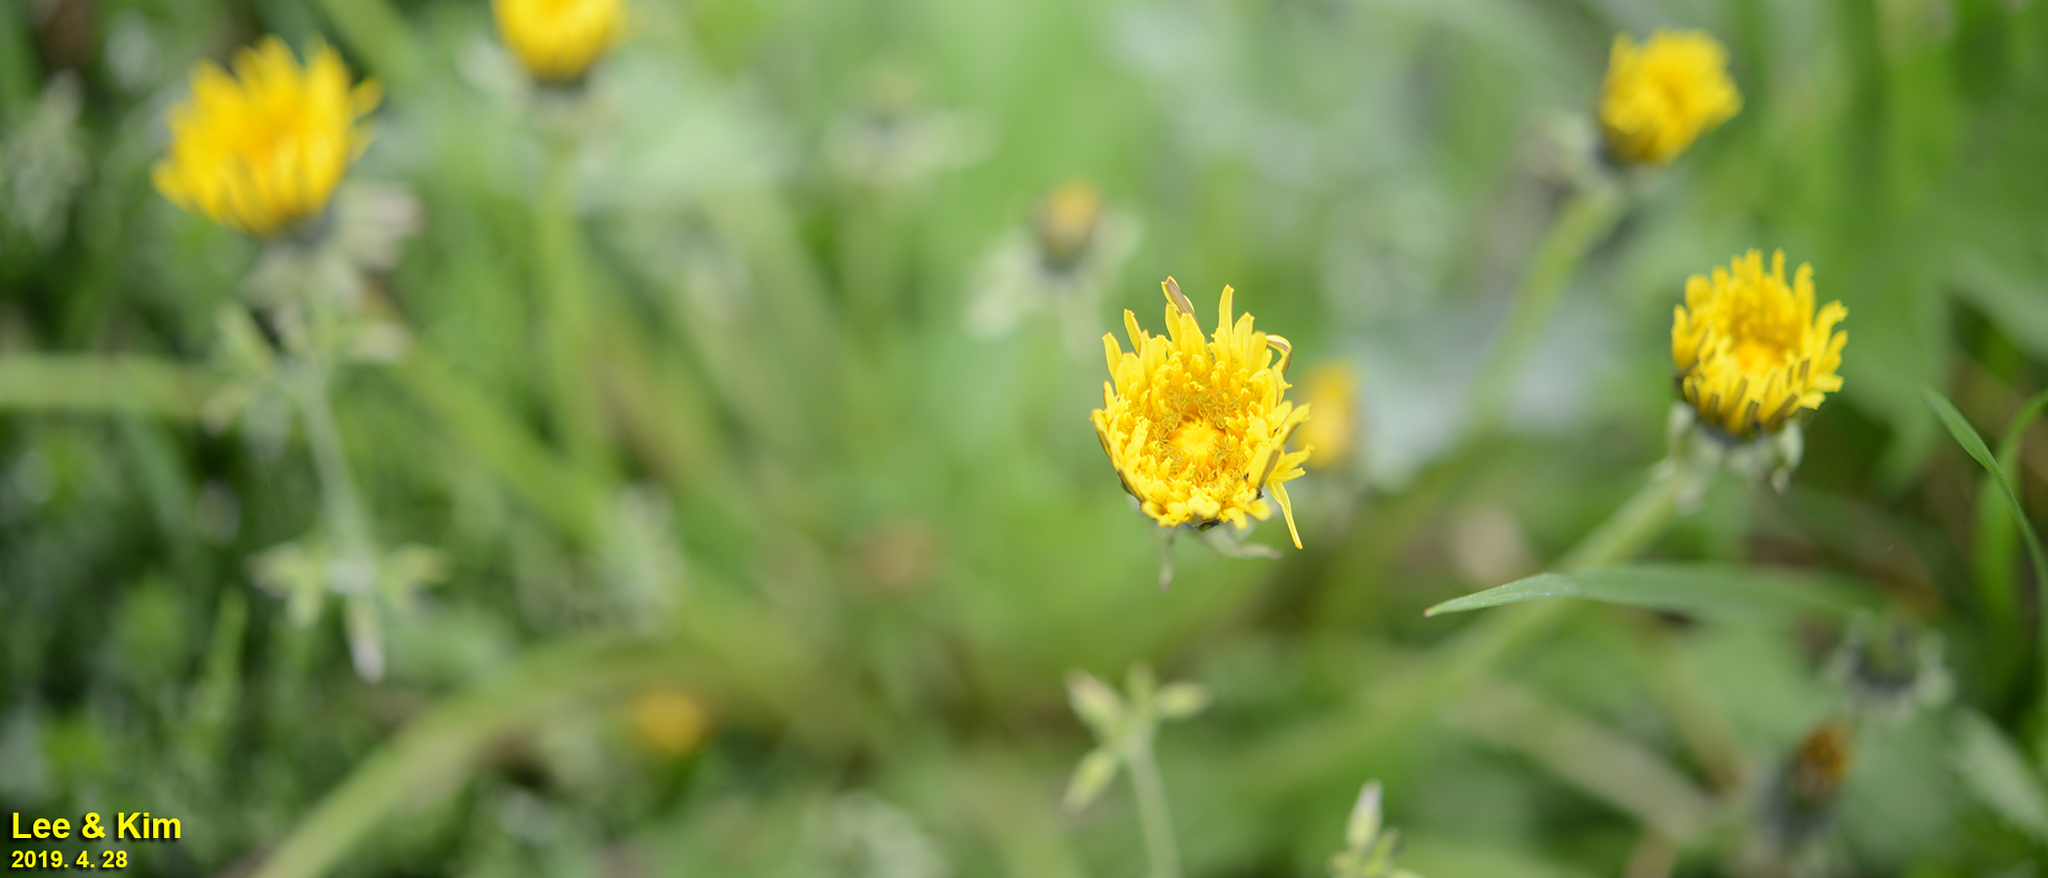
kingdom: Plantae
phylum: Tracheophyta
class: Magnoliopsida
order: Asterales
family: Asteraceae
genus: Taraxacum
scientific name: Taraxacum officinale
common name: Common dandelion
